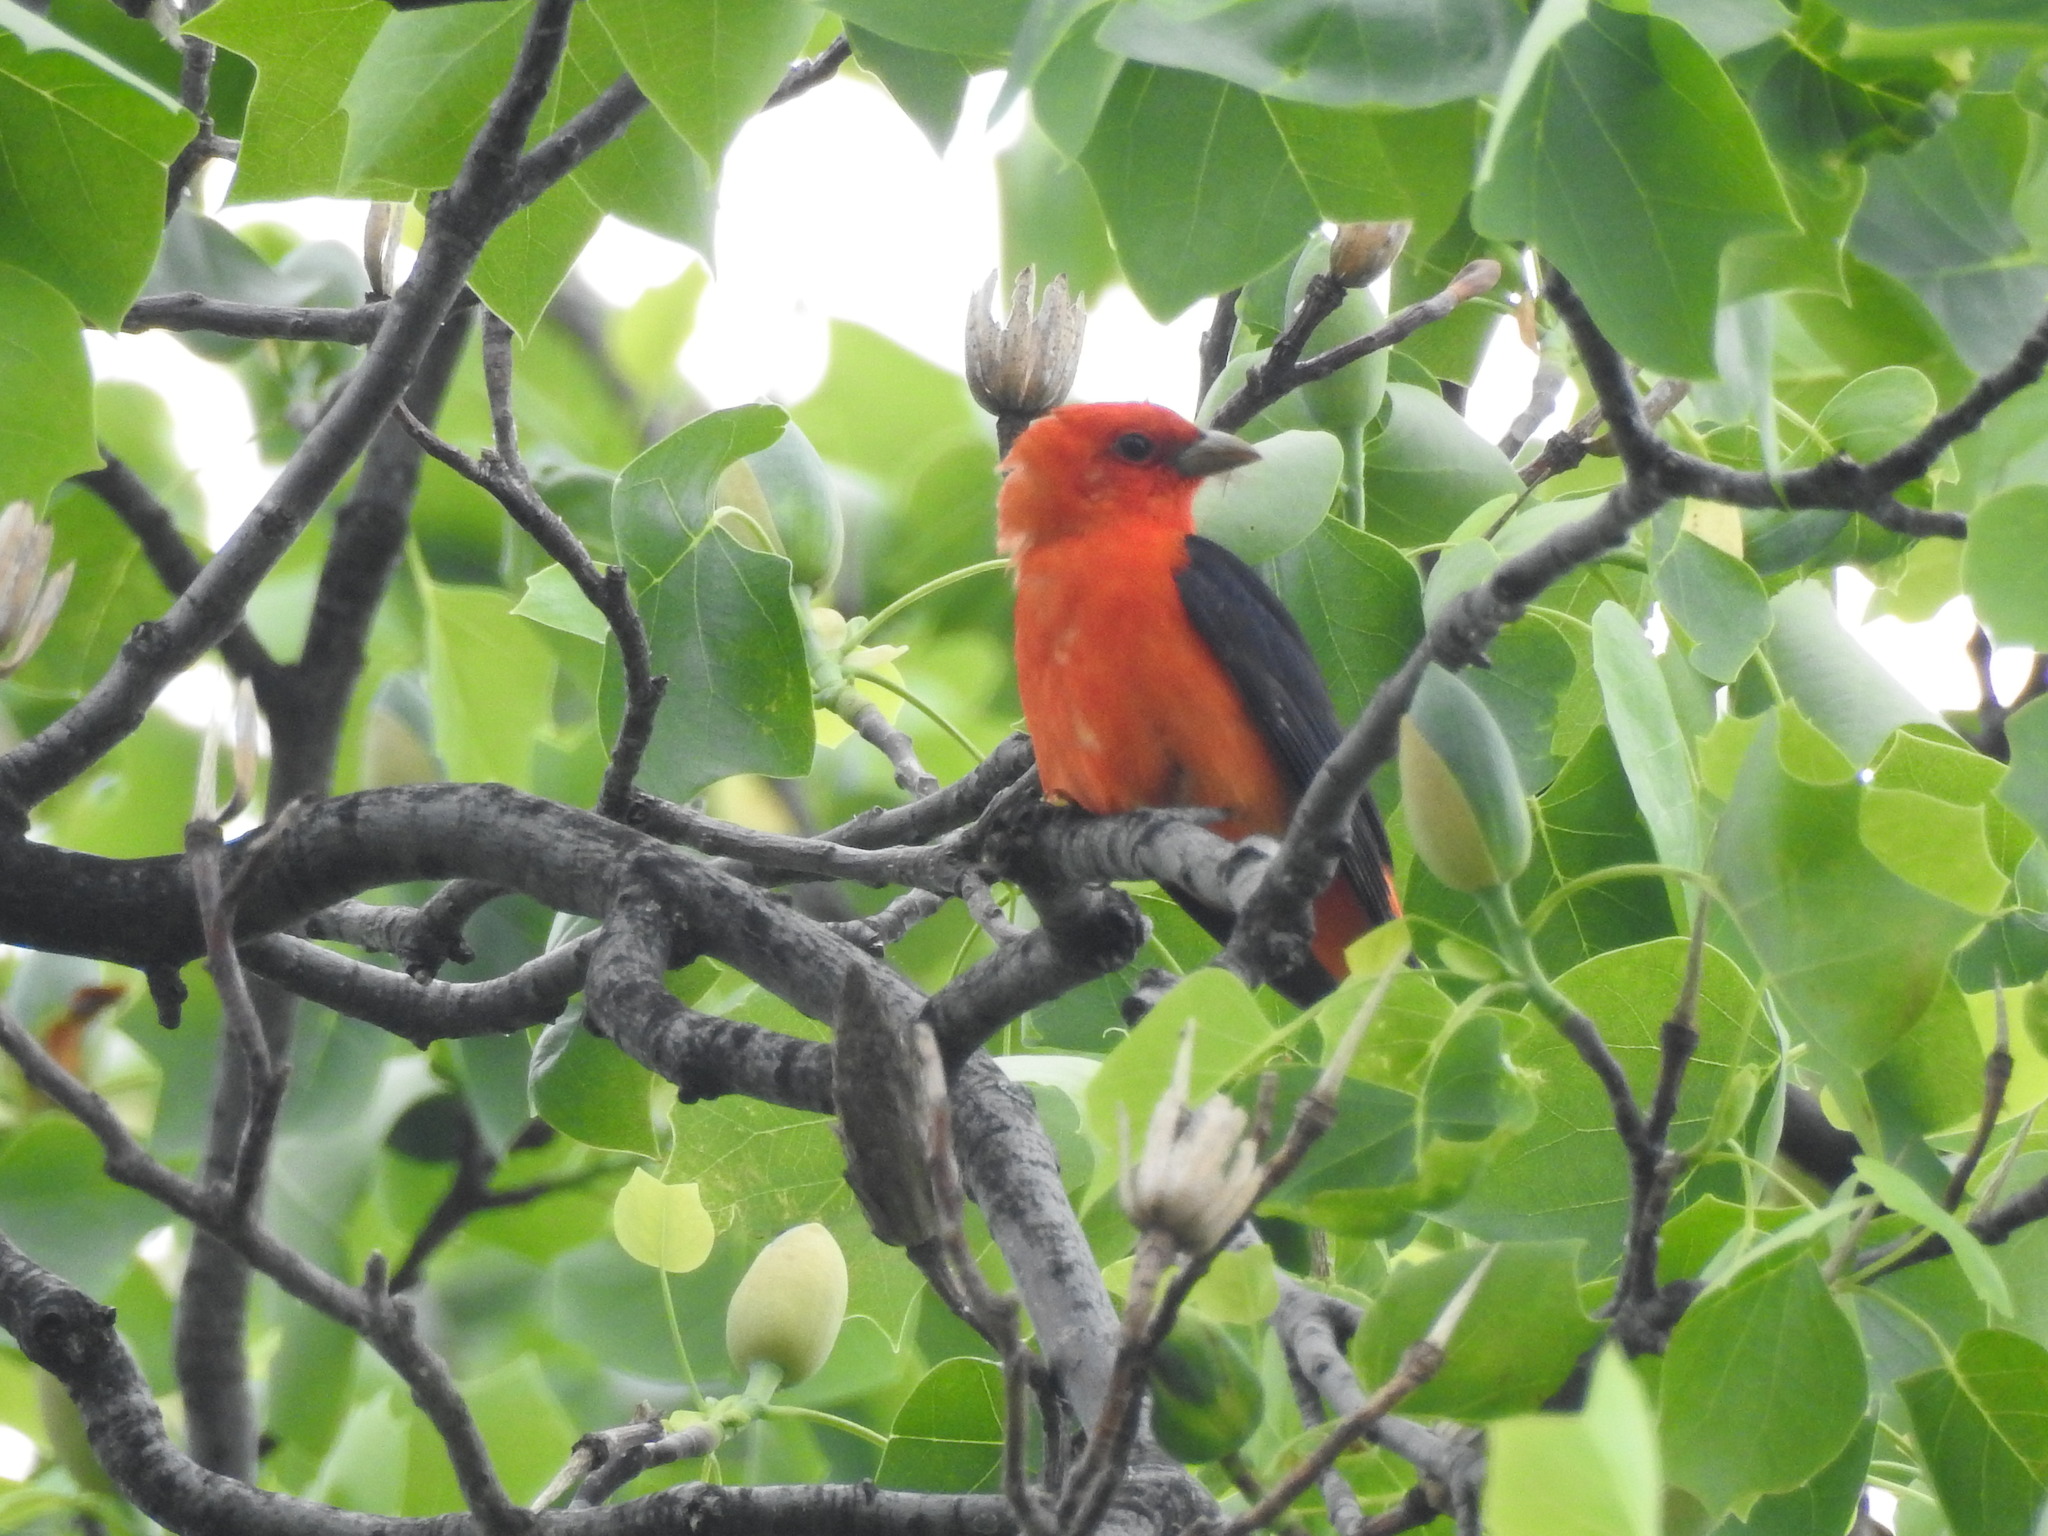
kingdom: Animalia
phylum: Chordata
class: Aves
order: Passeriformes
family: Cardinalidae
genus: Piranga
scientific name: Piranga olivacea
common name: Scarlet tanager
